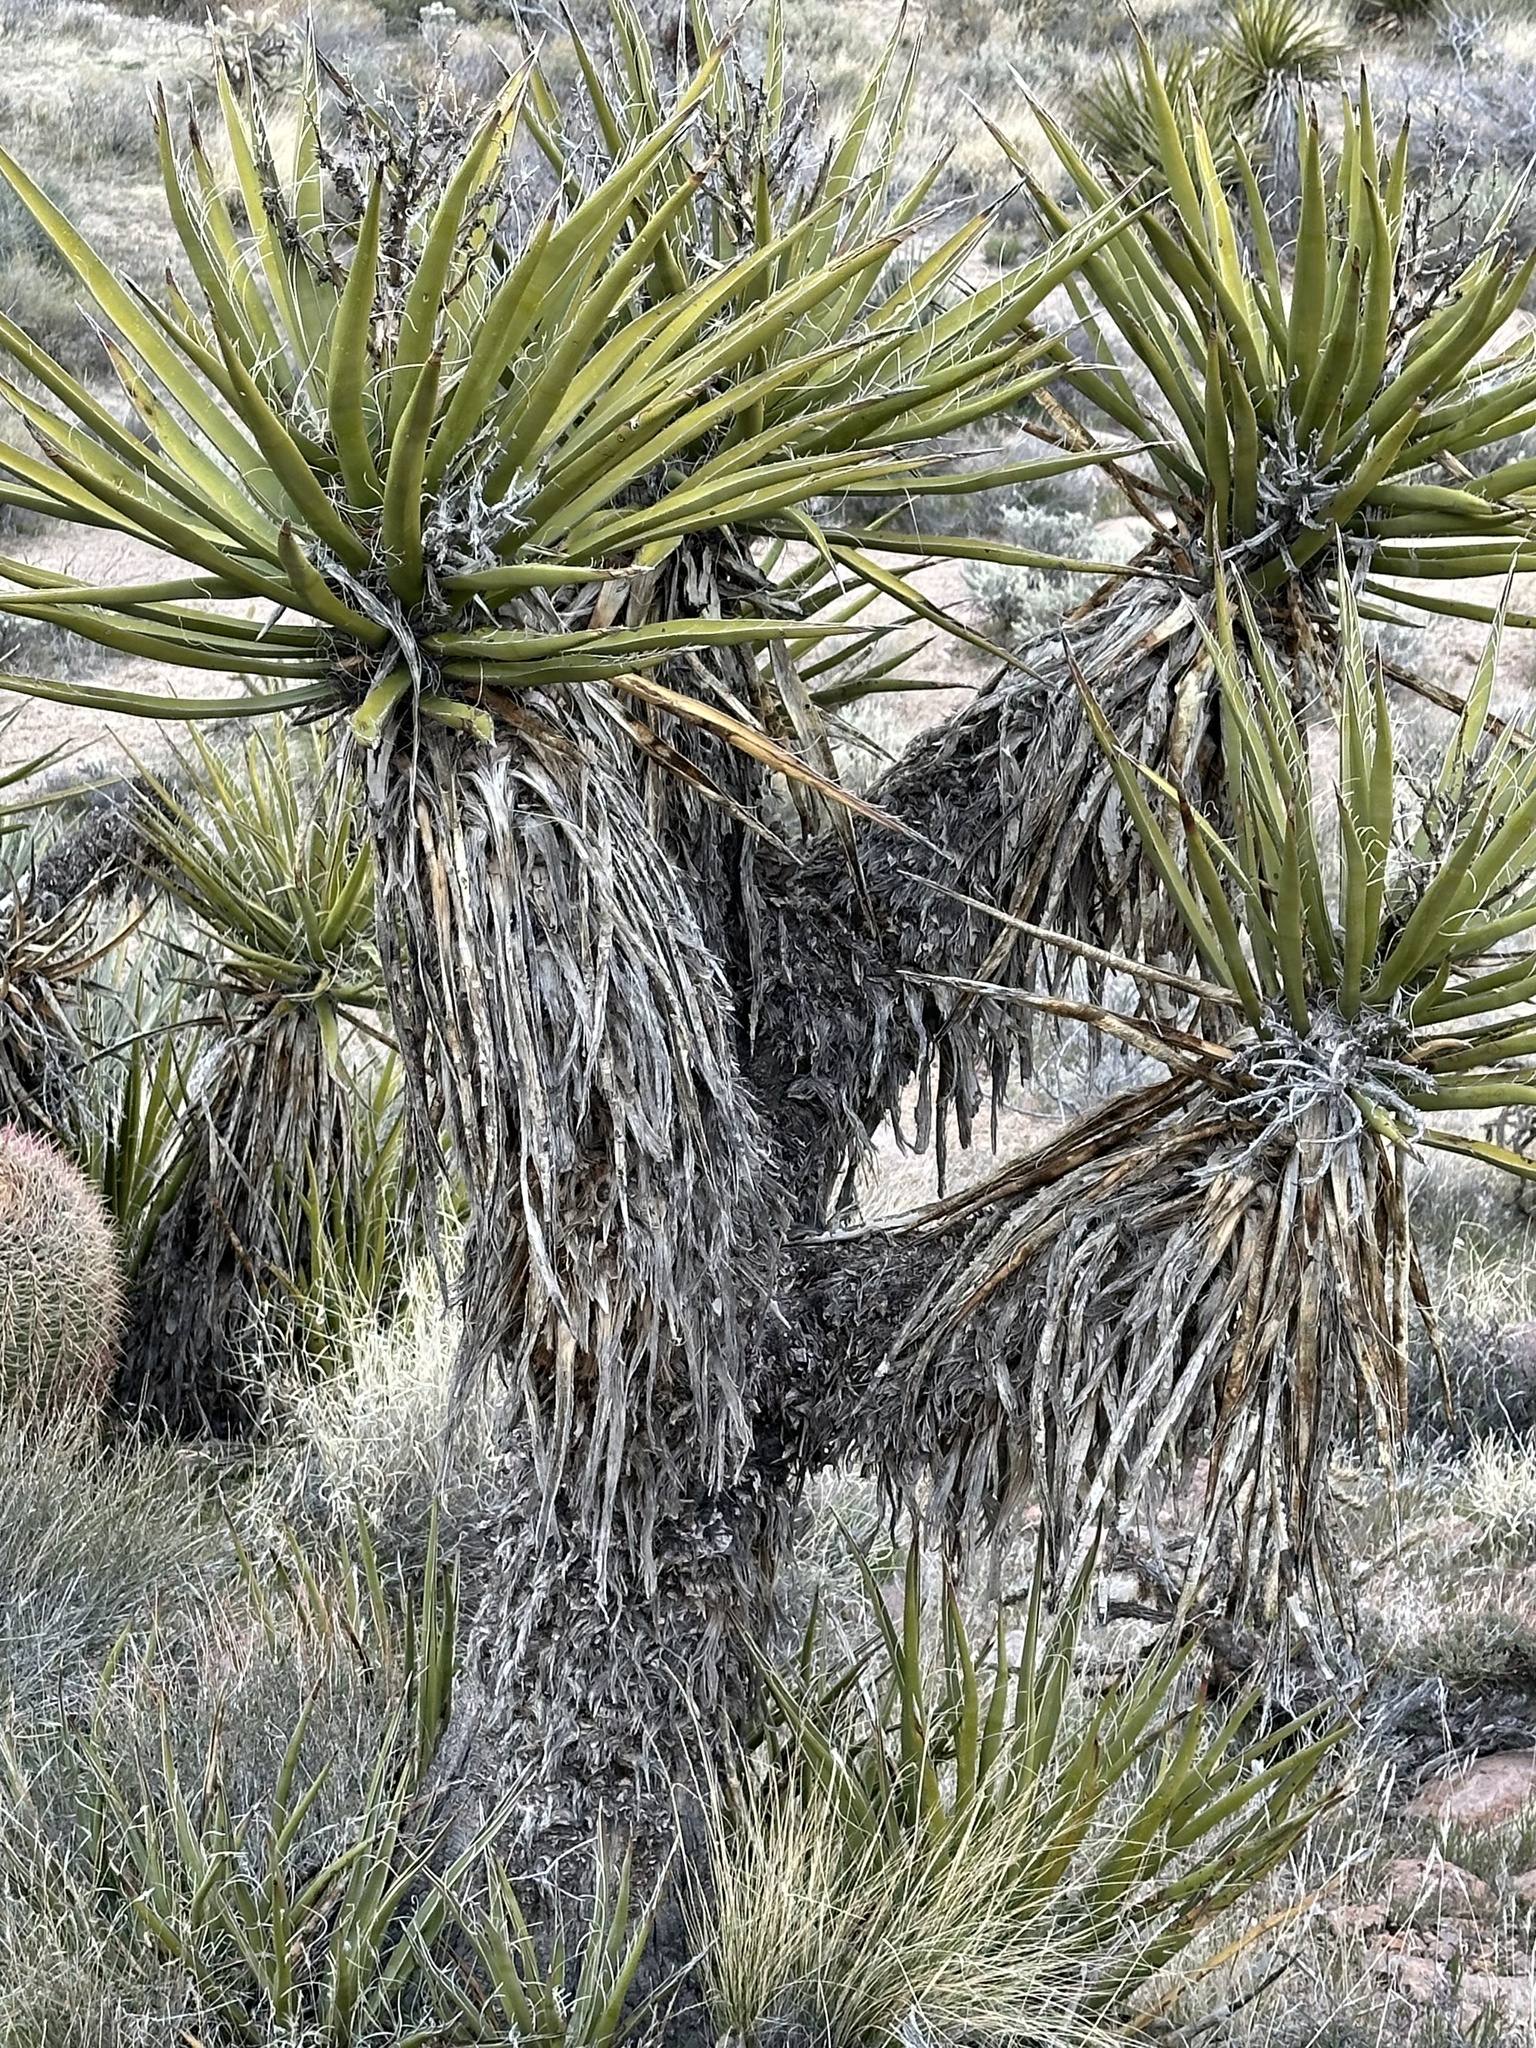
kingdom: Plantae
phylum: Tracheophyta
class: Liliopsida
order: Asparagales
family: Asparagaceae
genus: Yucca
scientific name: Yucca schidigera
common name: Mojave yucca
